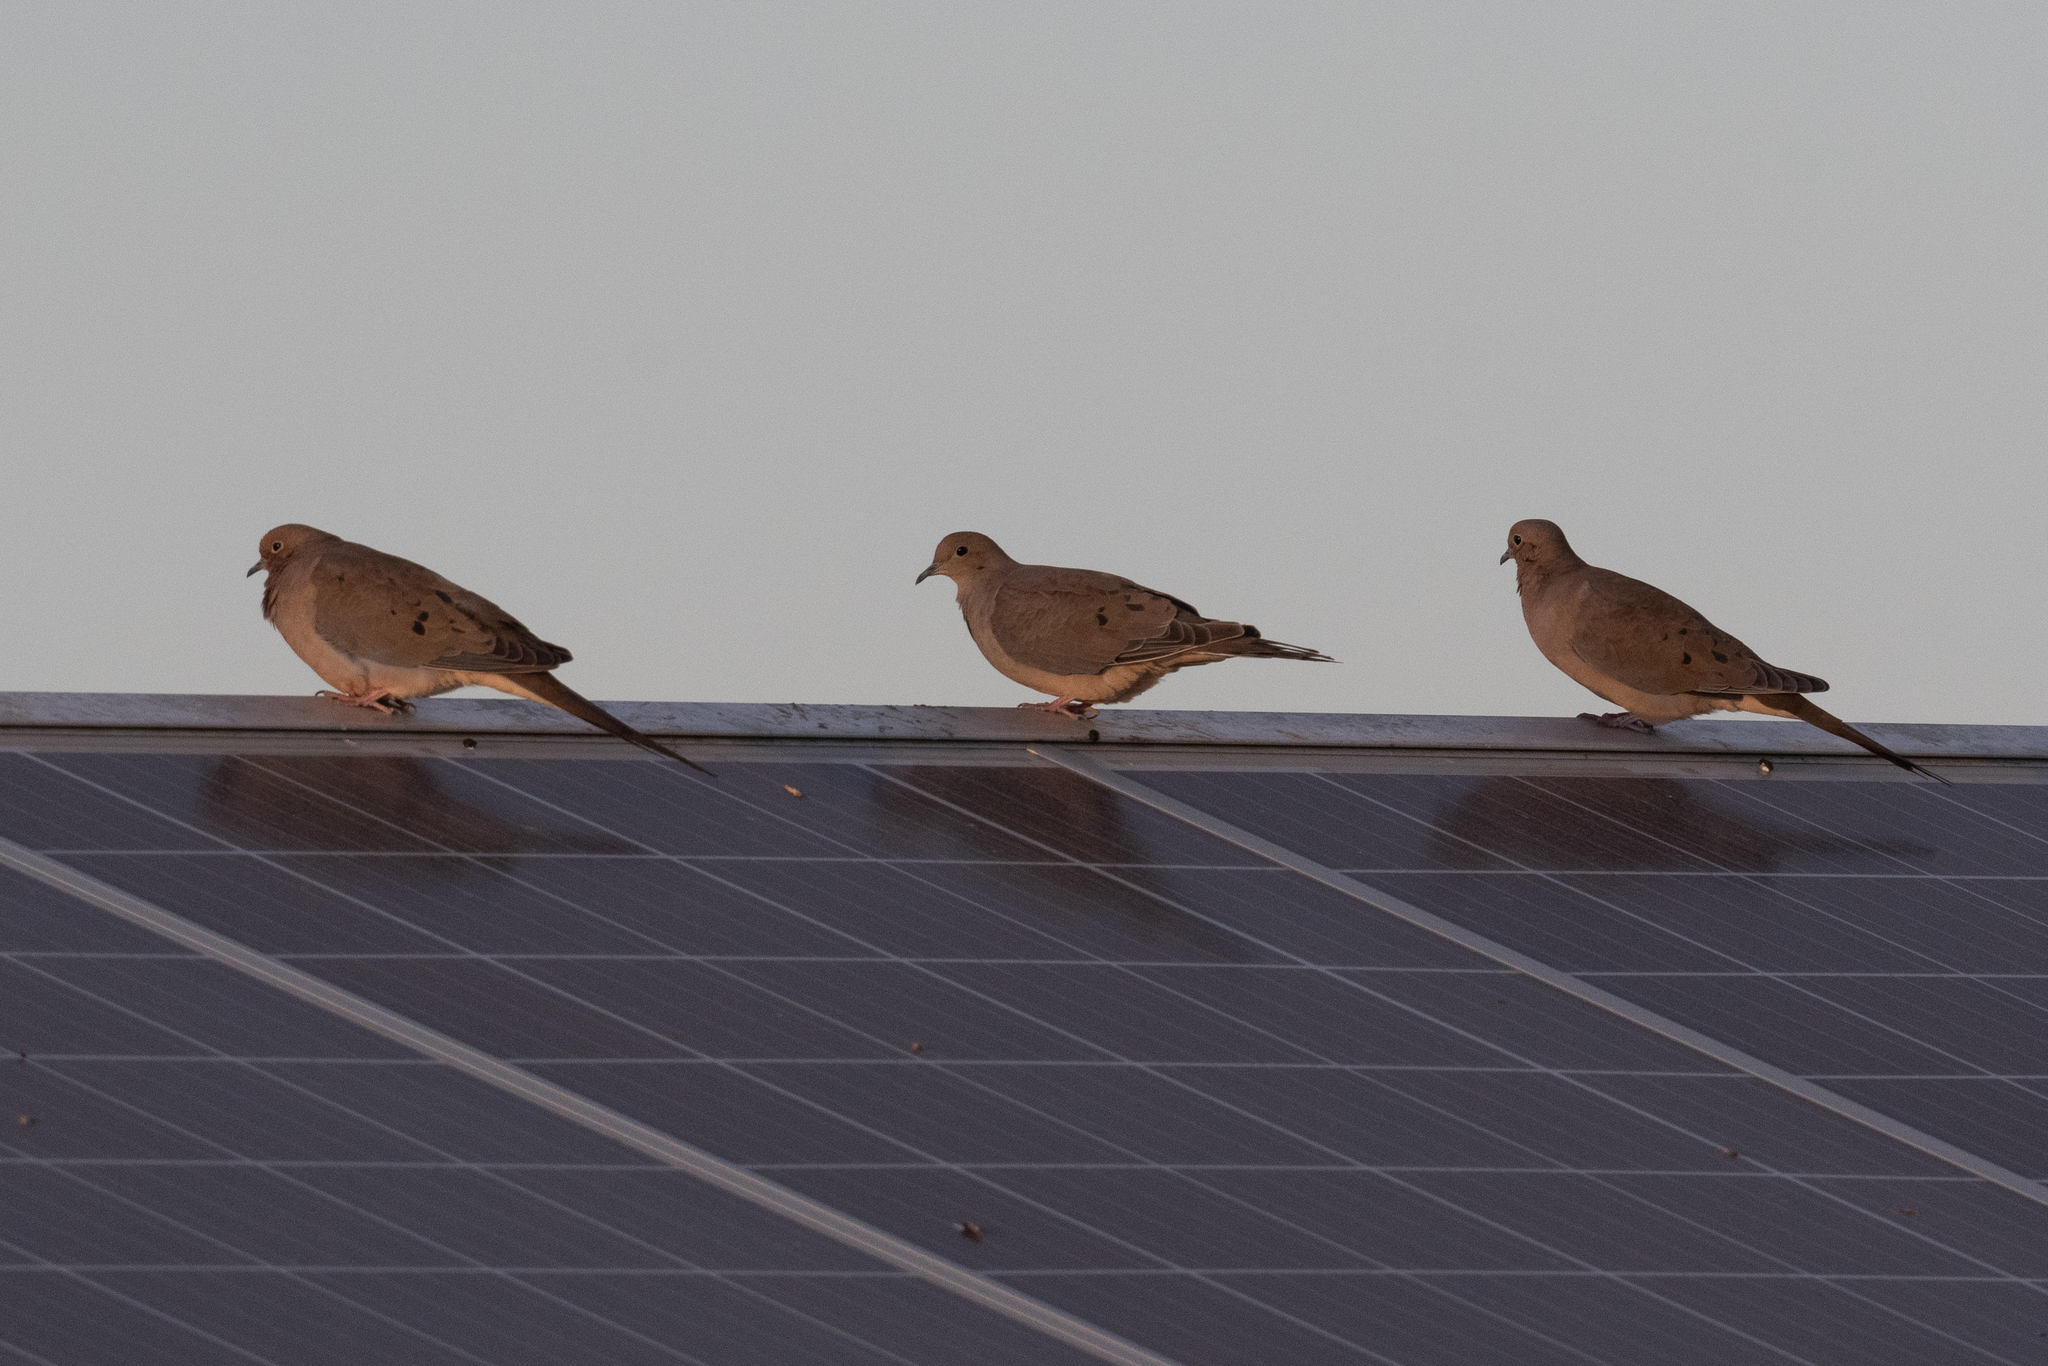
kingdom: Animalia
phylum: Chordata
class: Aves
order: Columbiformes
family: Columbidae
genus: Zenaida
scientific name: Zenaida macroura
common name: Mourning dove
